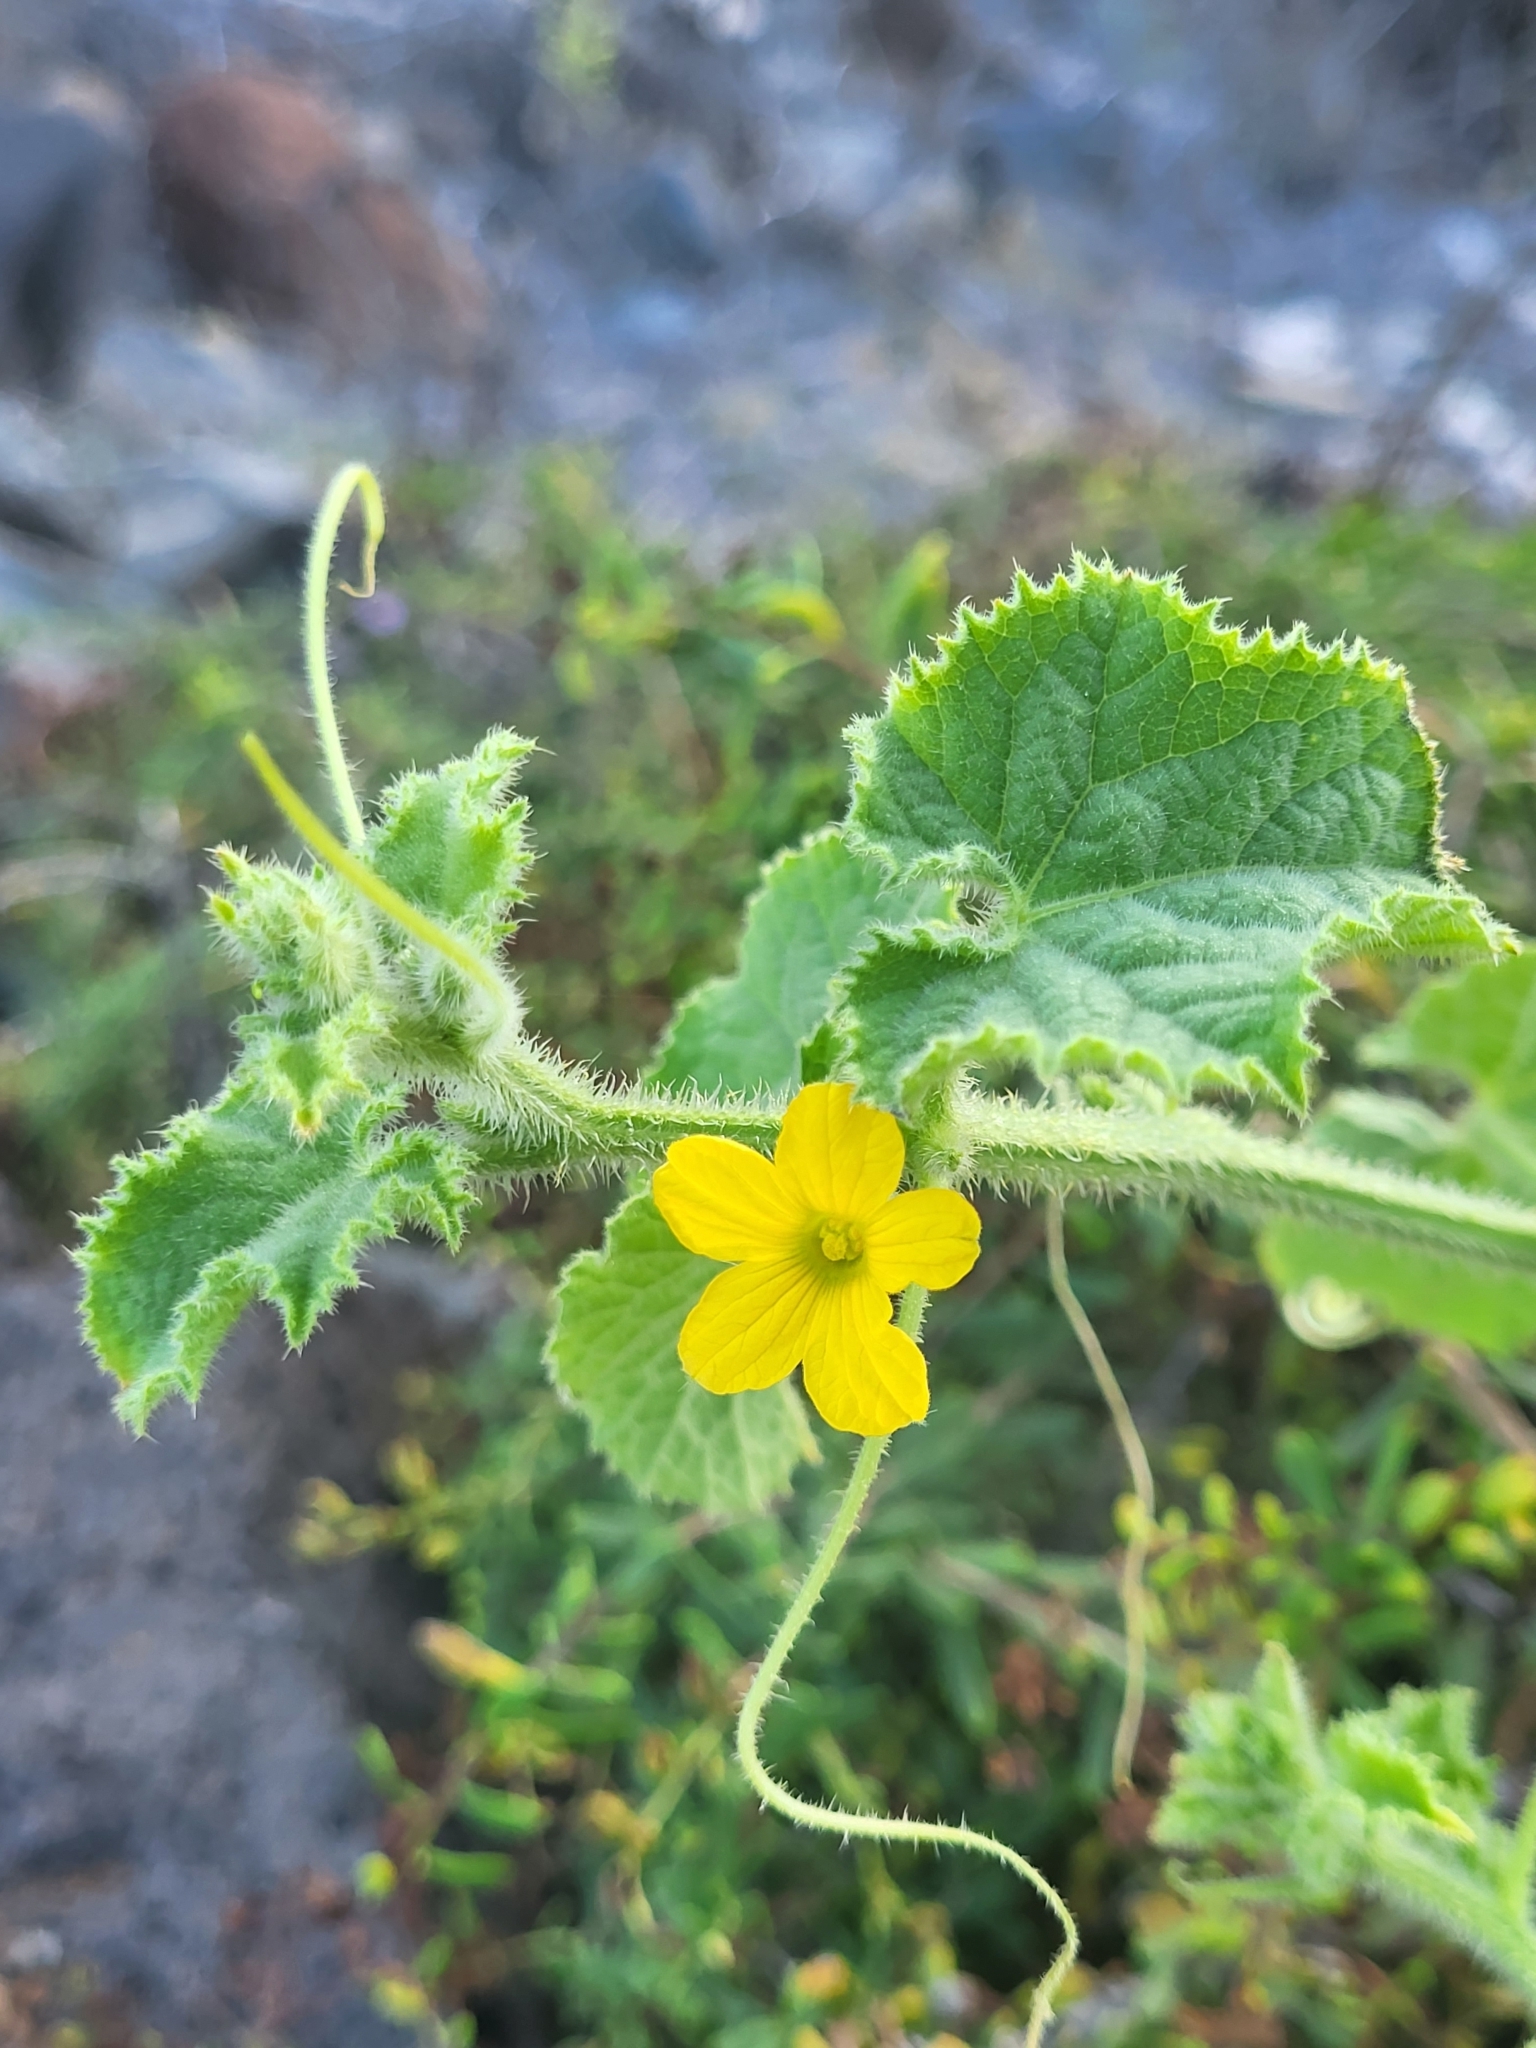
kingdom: Plantae
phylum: Tracheophyta
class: Magnoliopsida
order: Cucurbitales
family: Cucurbitaceae
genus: Cucumis
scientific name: Cucumis dipsaceus
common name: Hedgehog gourd
